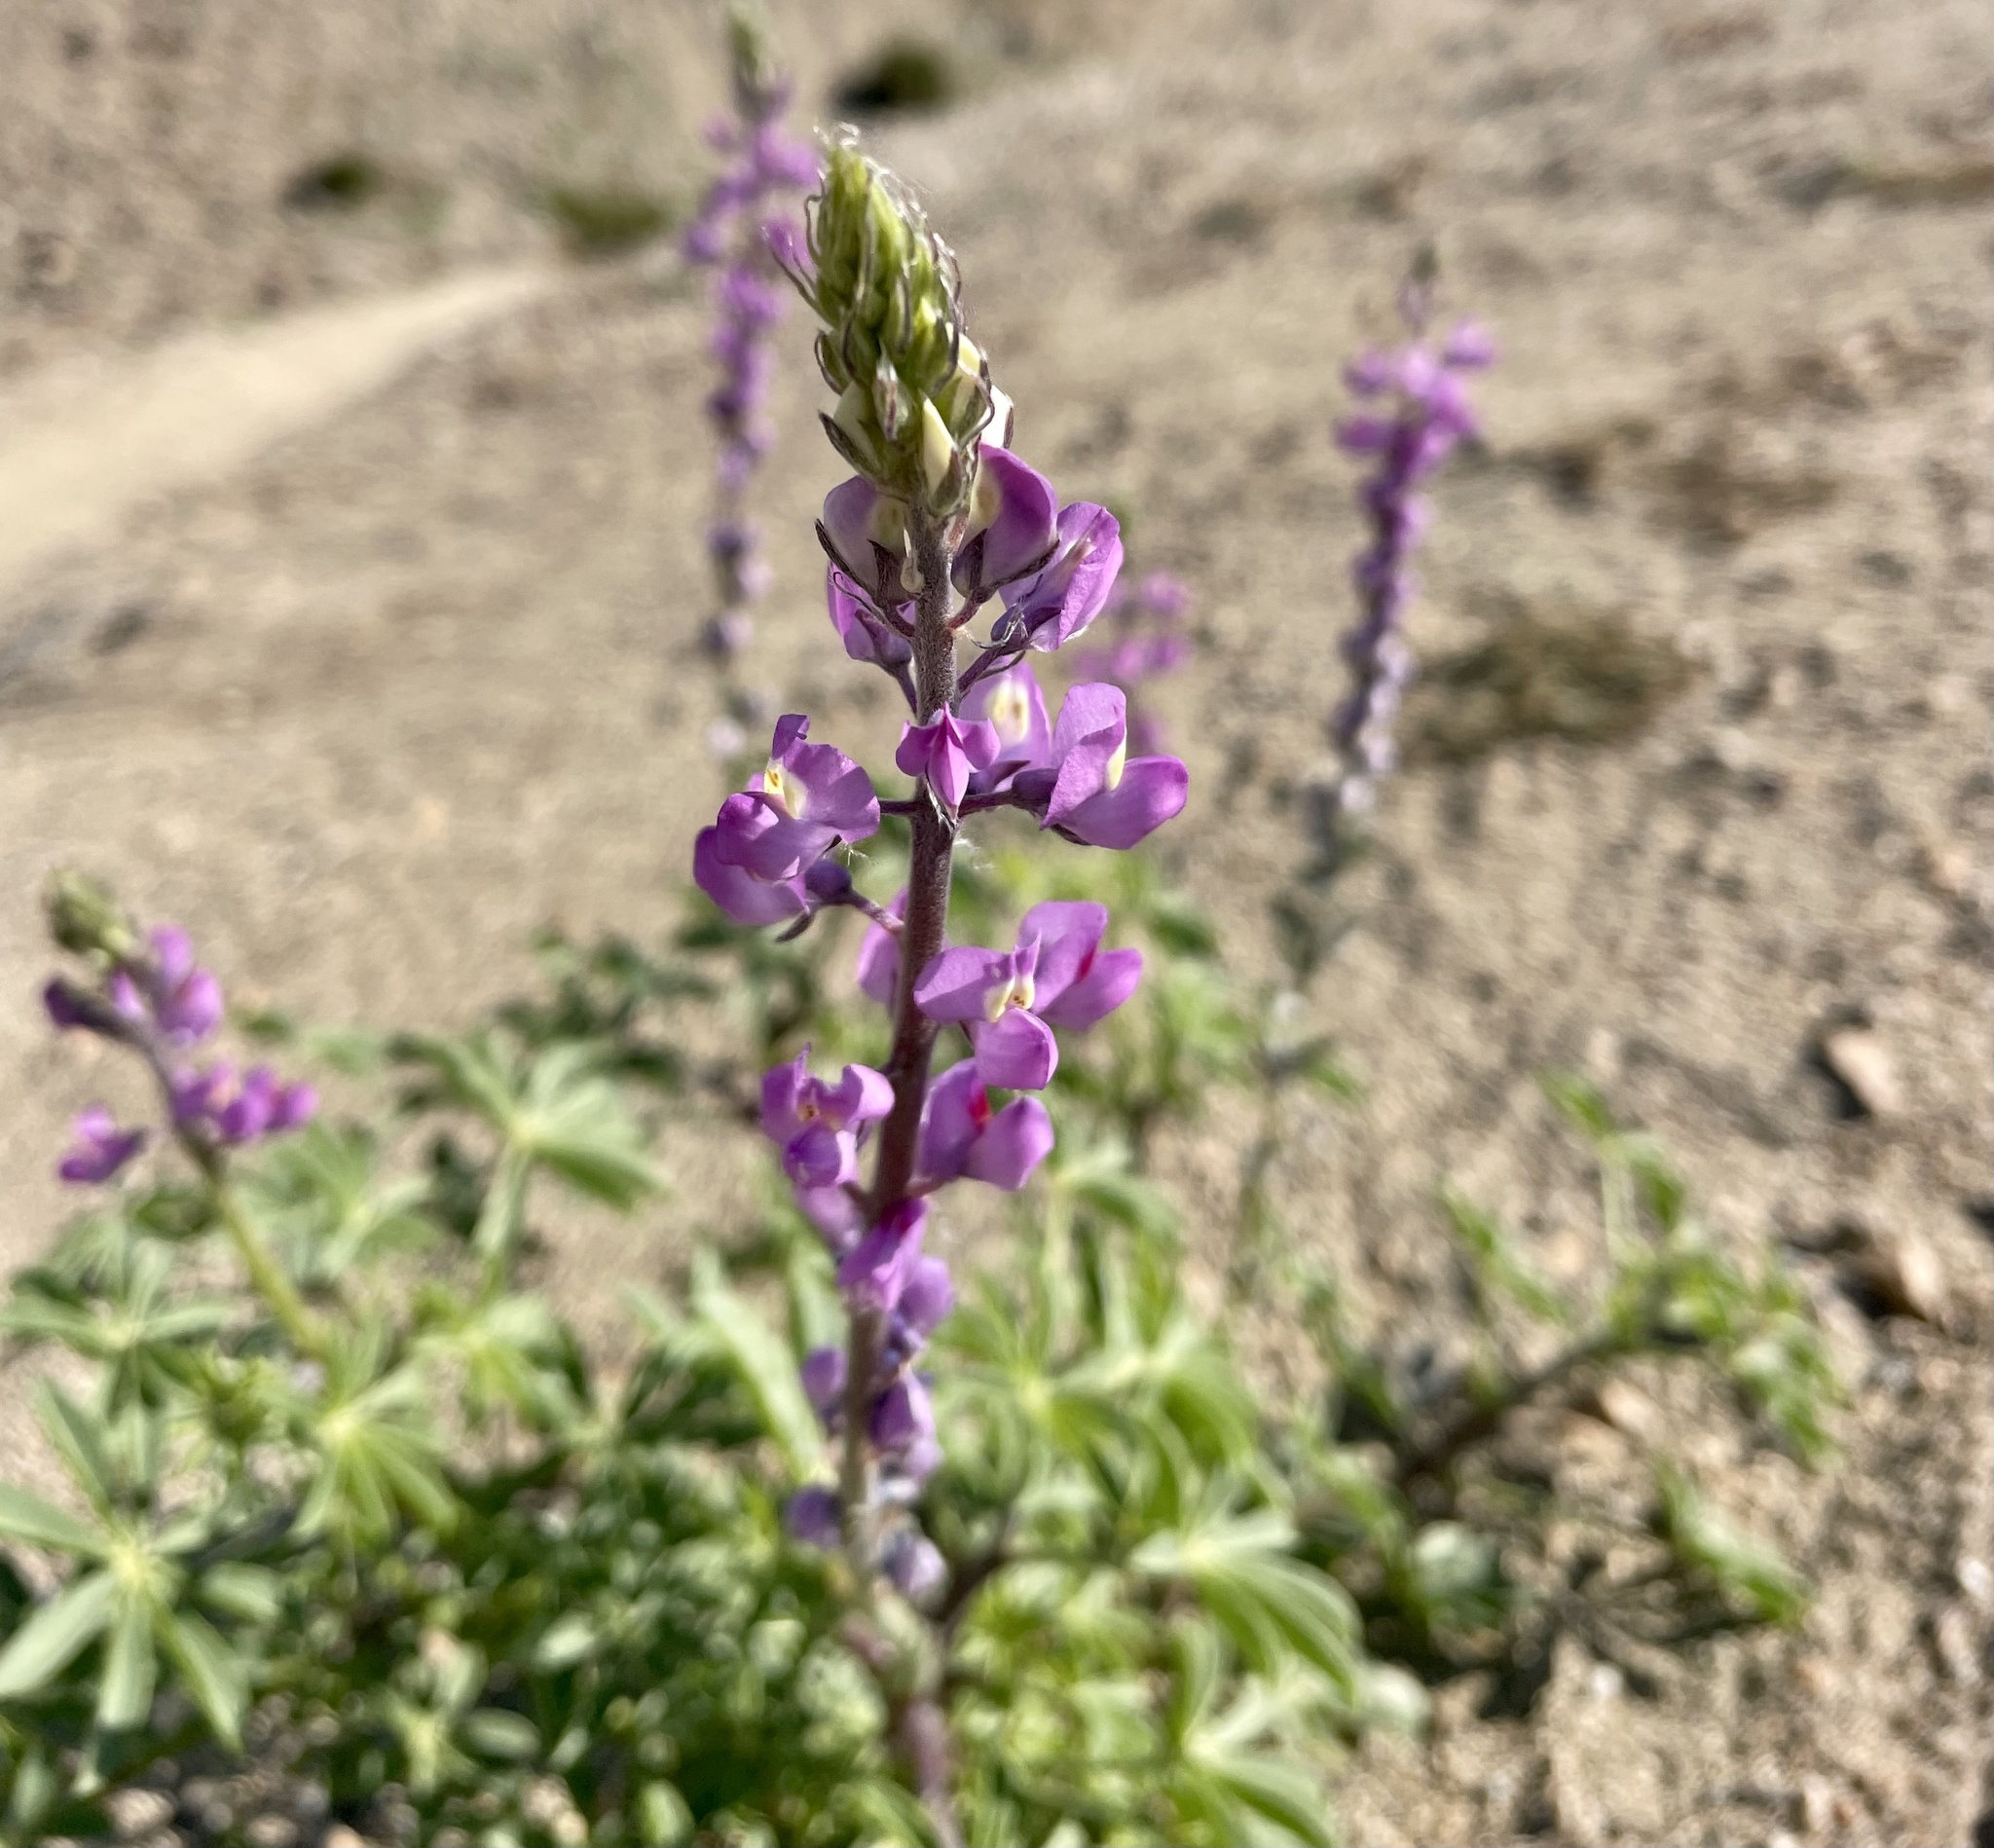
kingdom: Plantae
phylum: Tracheophyta
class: Magnoliopsida
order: Fabales
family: Fabaceae
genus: Lupinus
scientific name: Lupinus arizonicus
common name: Arizona lupine
